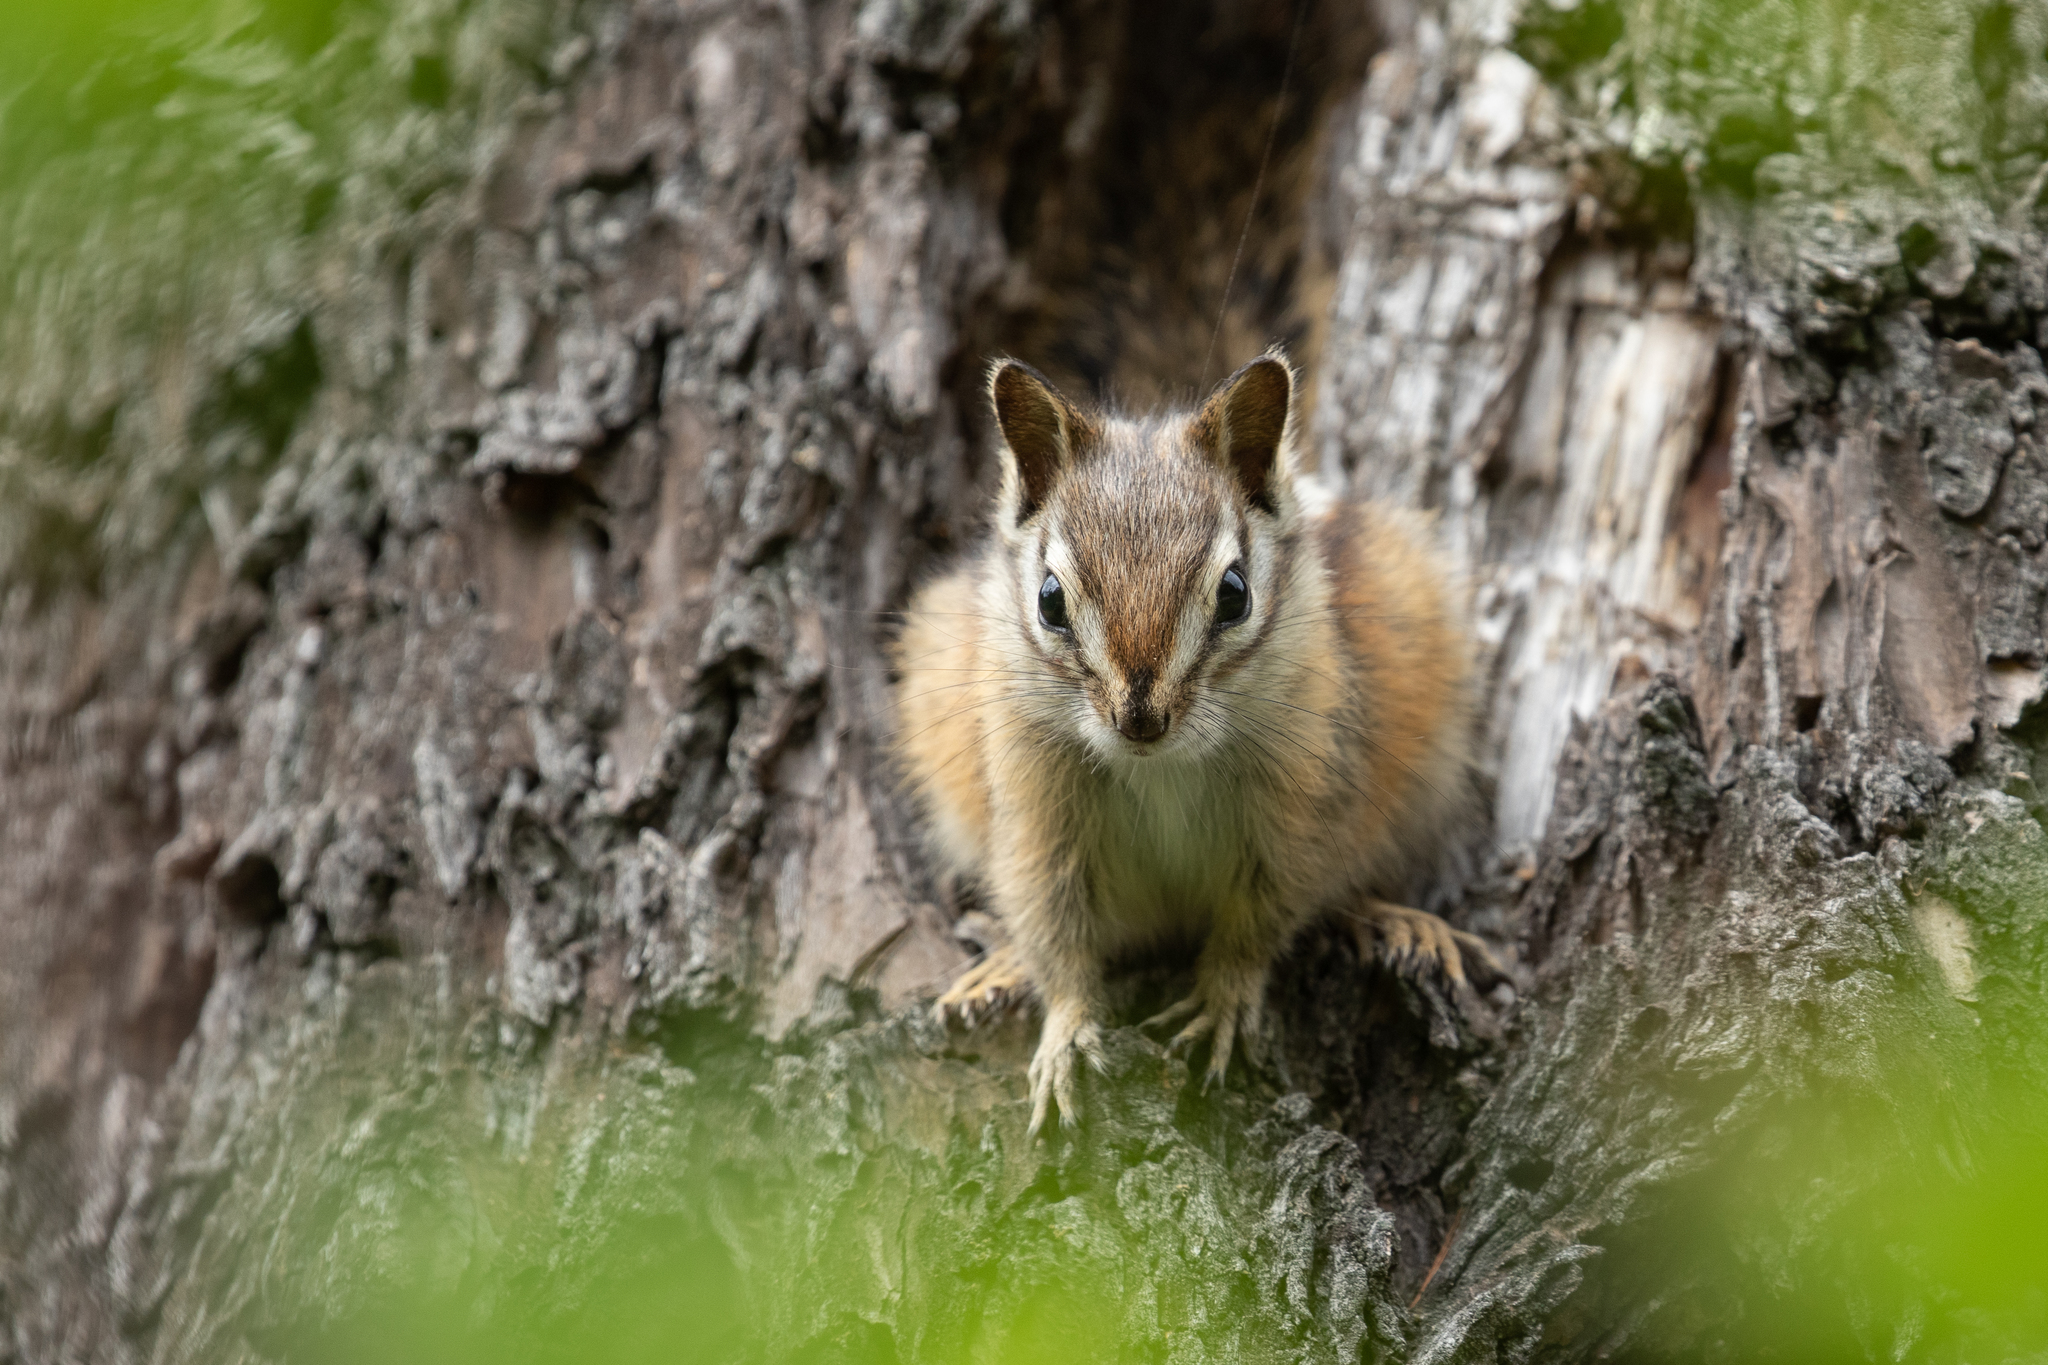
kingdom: Animalia
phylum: Chordata
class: Mammalia
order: Rodentia
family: Sciuridae
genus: Tamias
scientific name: Tamias amoenus
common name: Yellow-pine chipmunk
